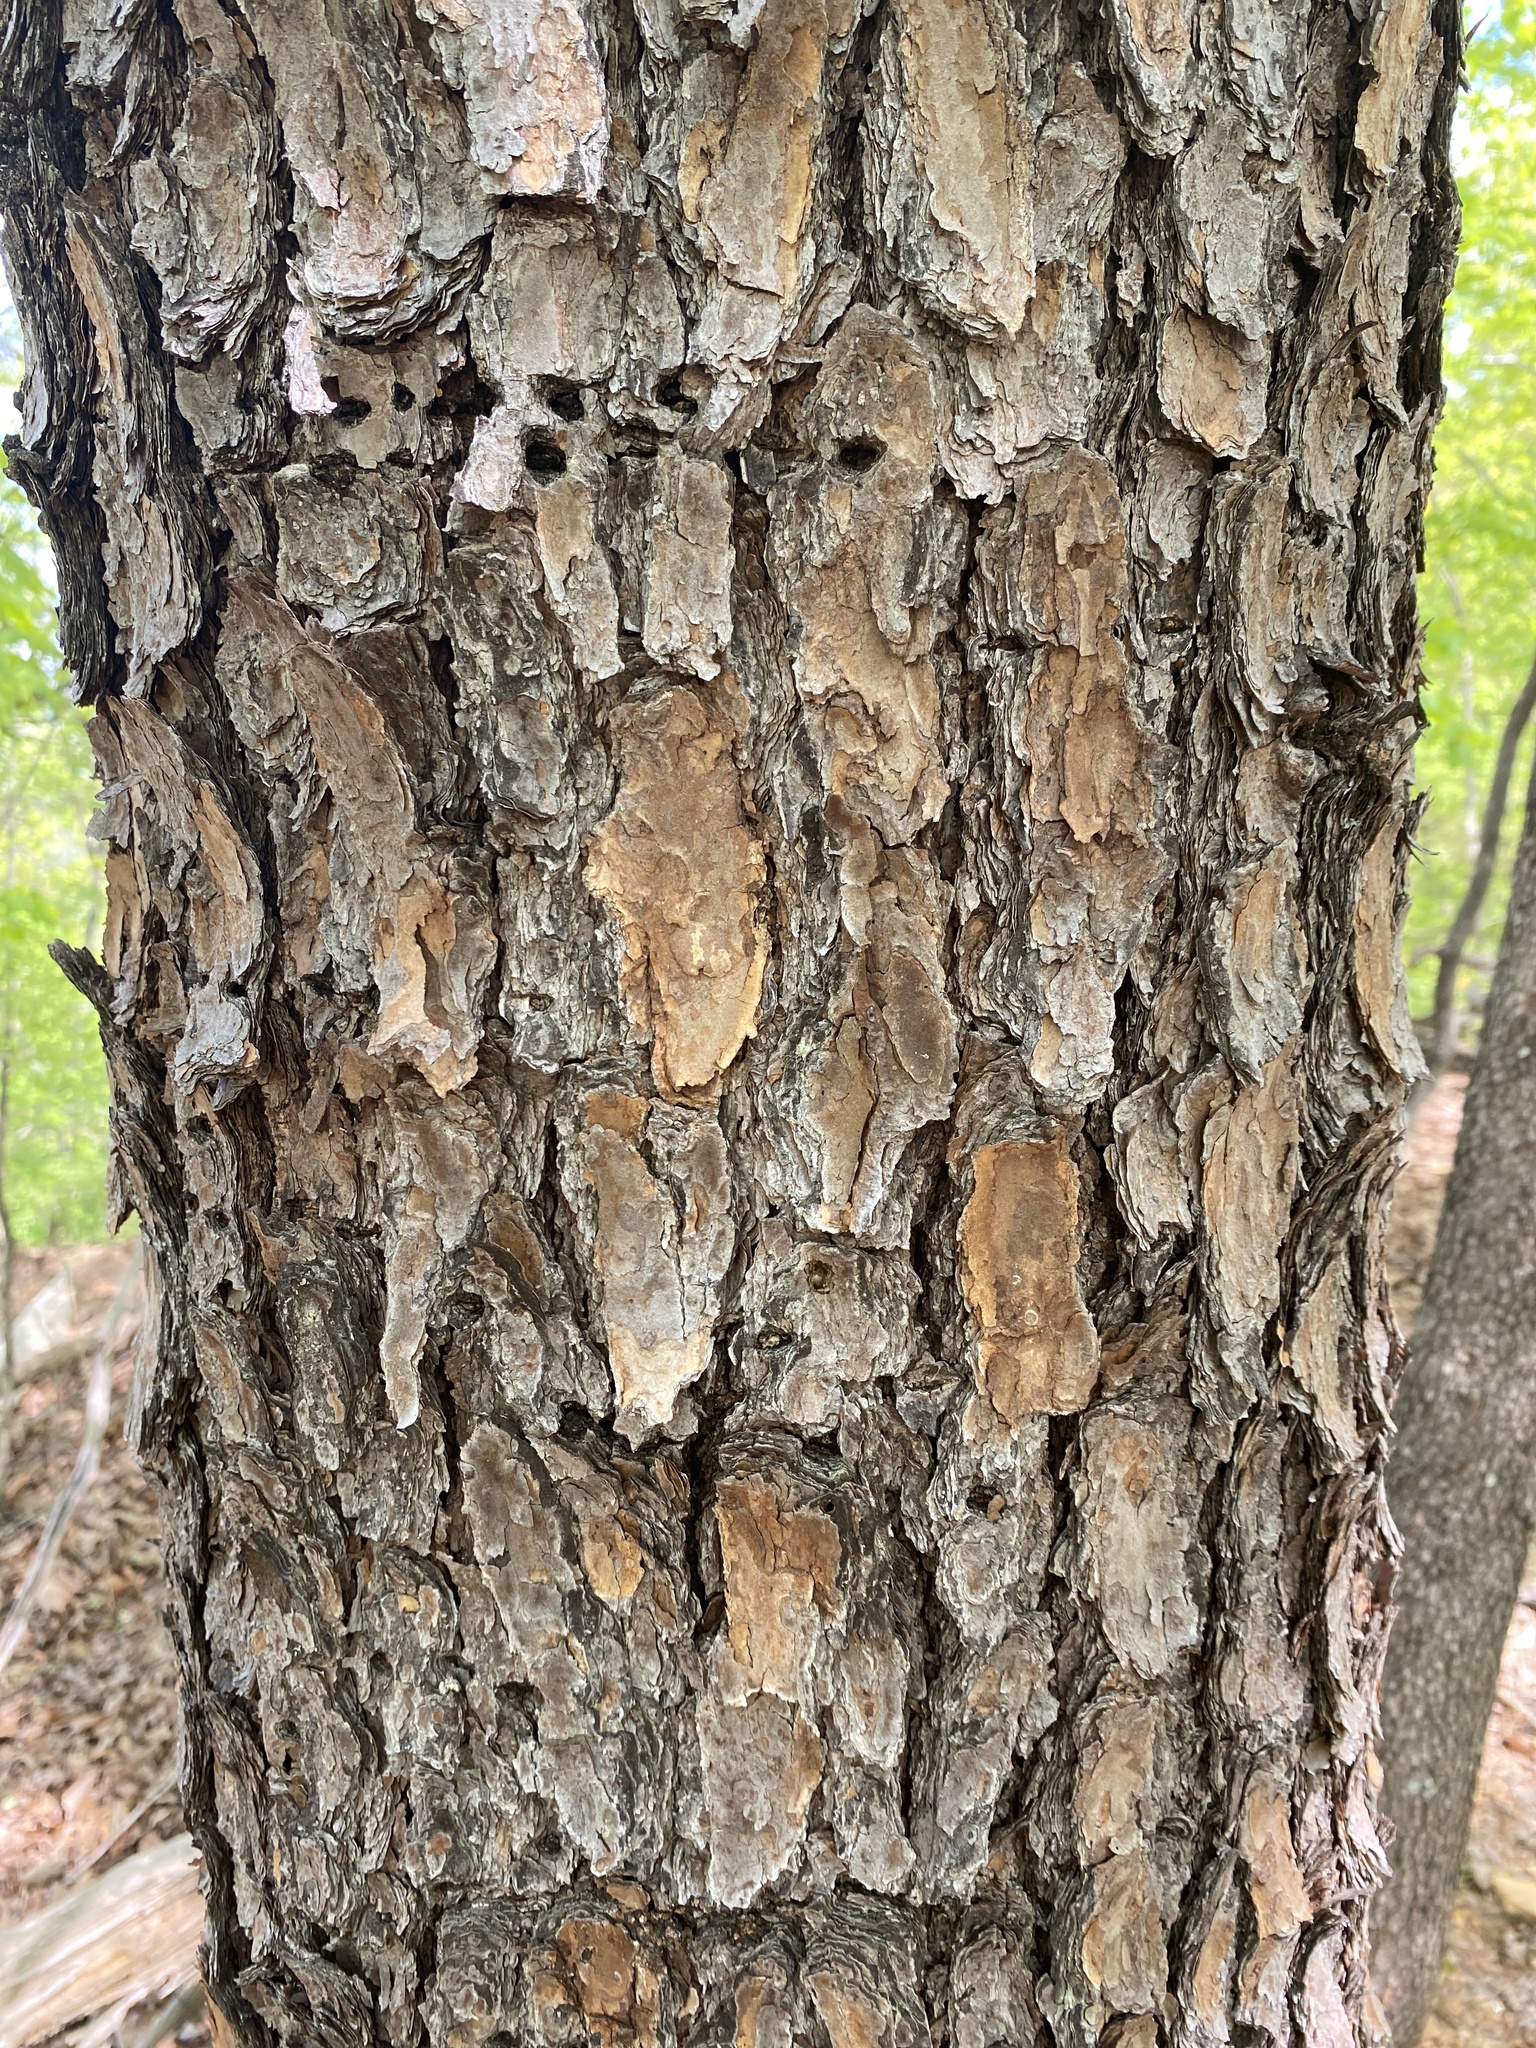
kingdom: Plantae
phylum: Tracheophyta
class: Pinopsida
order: Pinales
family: Pinaceae
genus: Pinus
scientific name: Pinus virginiana
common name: Scrub pine
